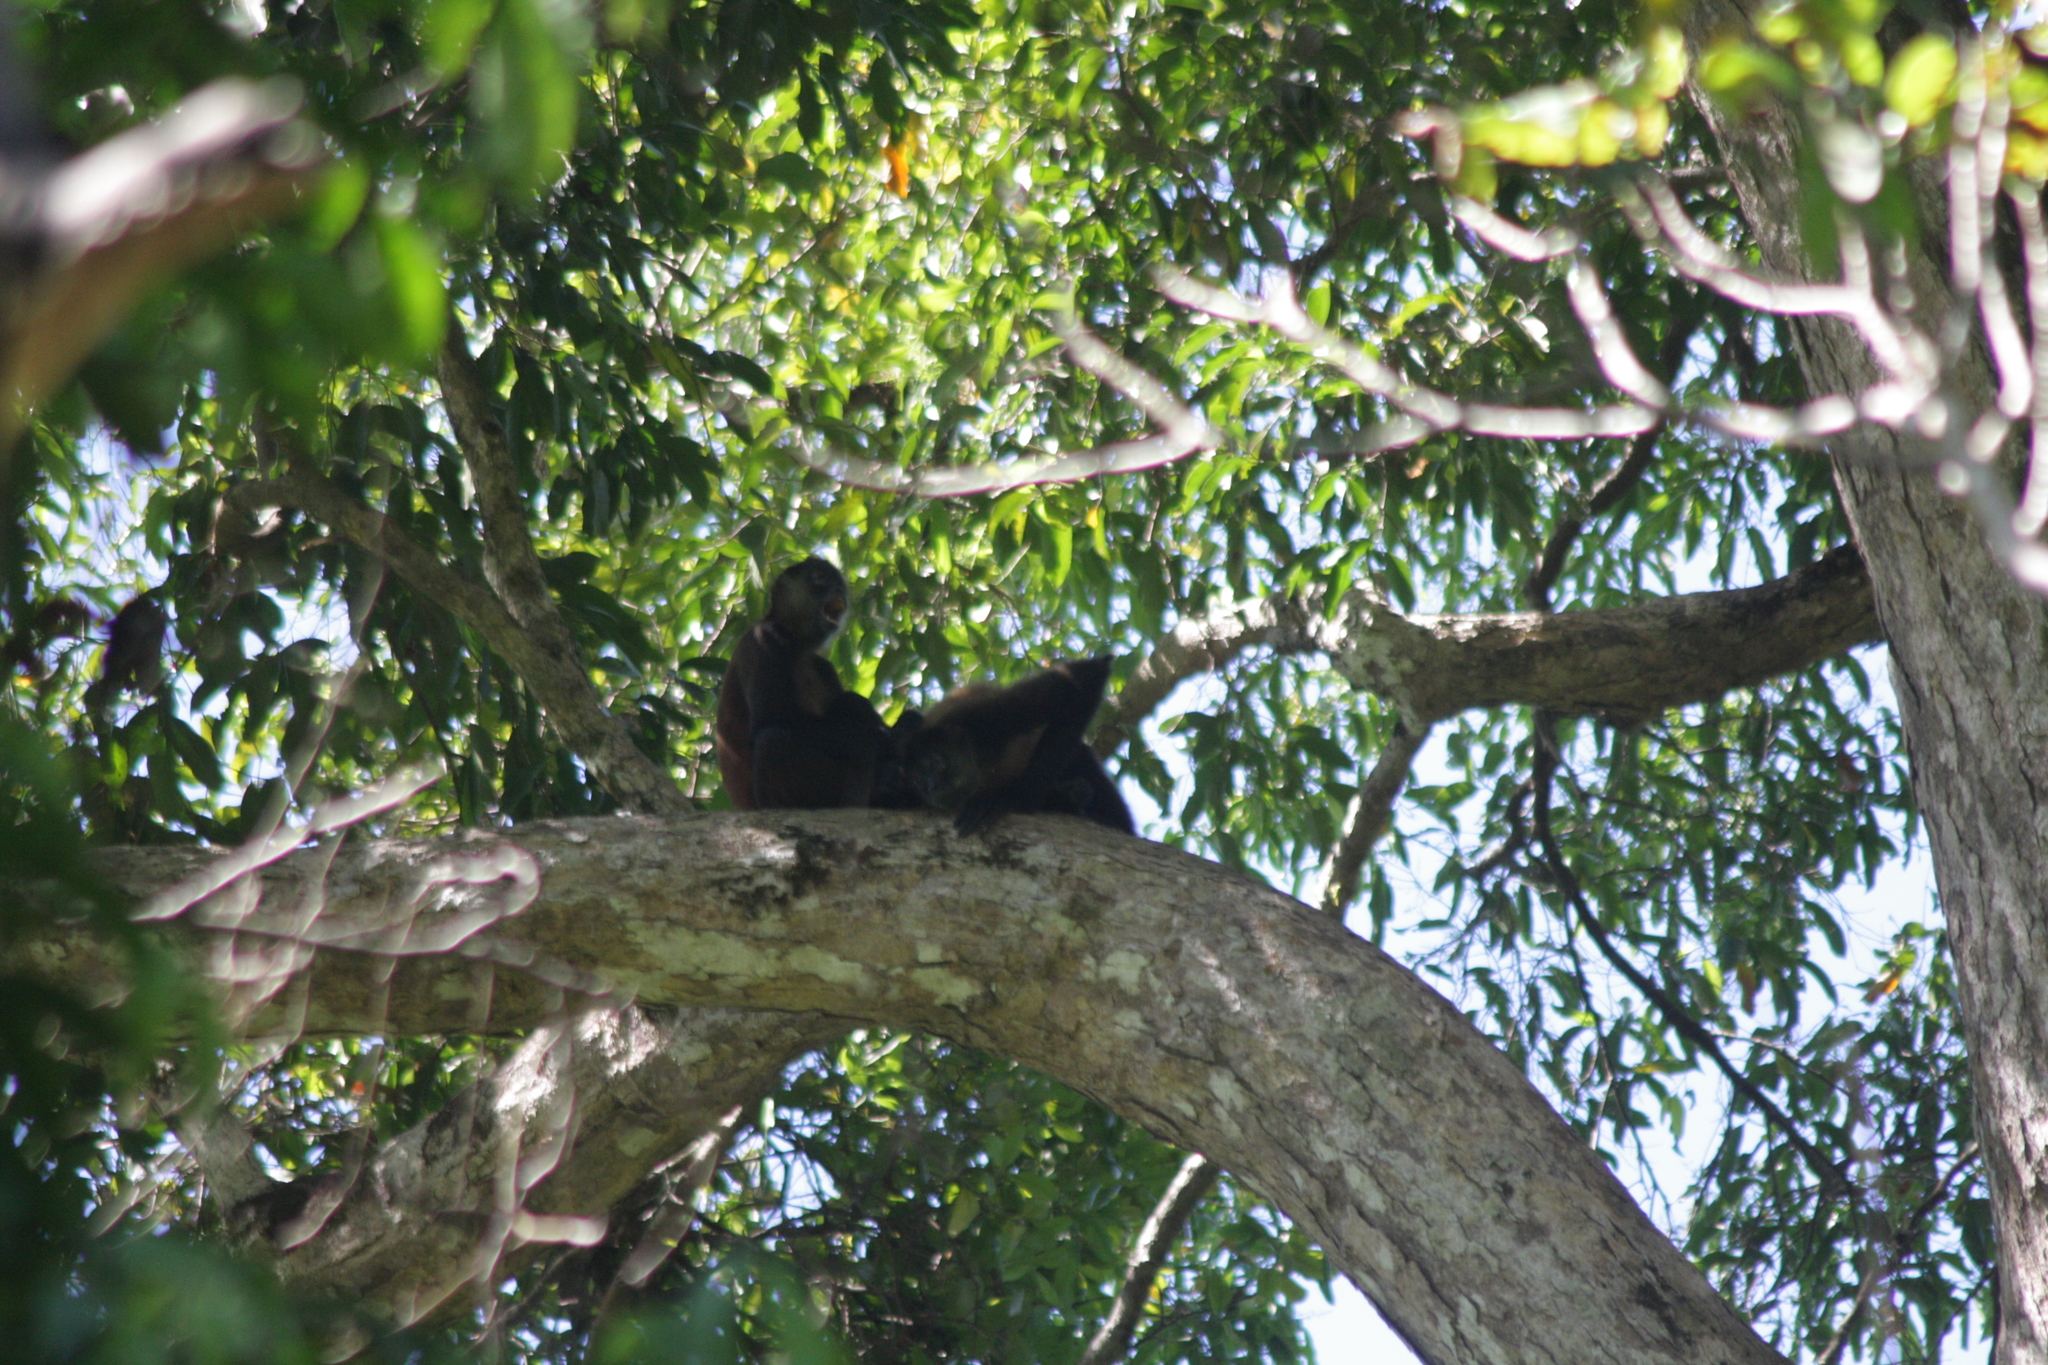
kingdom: Animalia
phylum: Chordata
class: Mammalia
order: Primates
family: Atelidae
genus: Ateles
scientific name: Ateles geoffroyi
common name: Black-handed spider monkey
